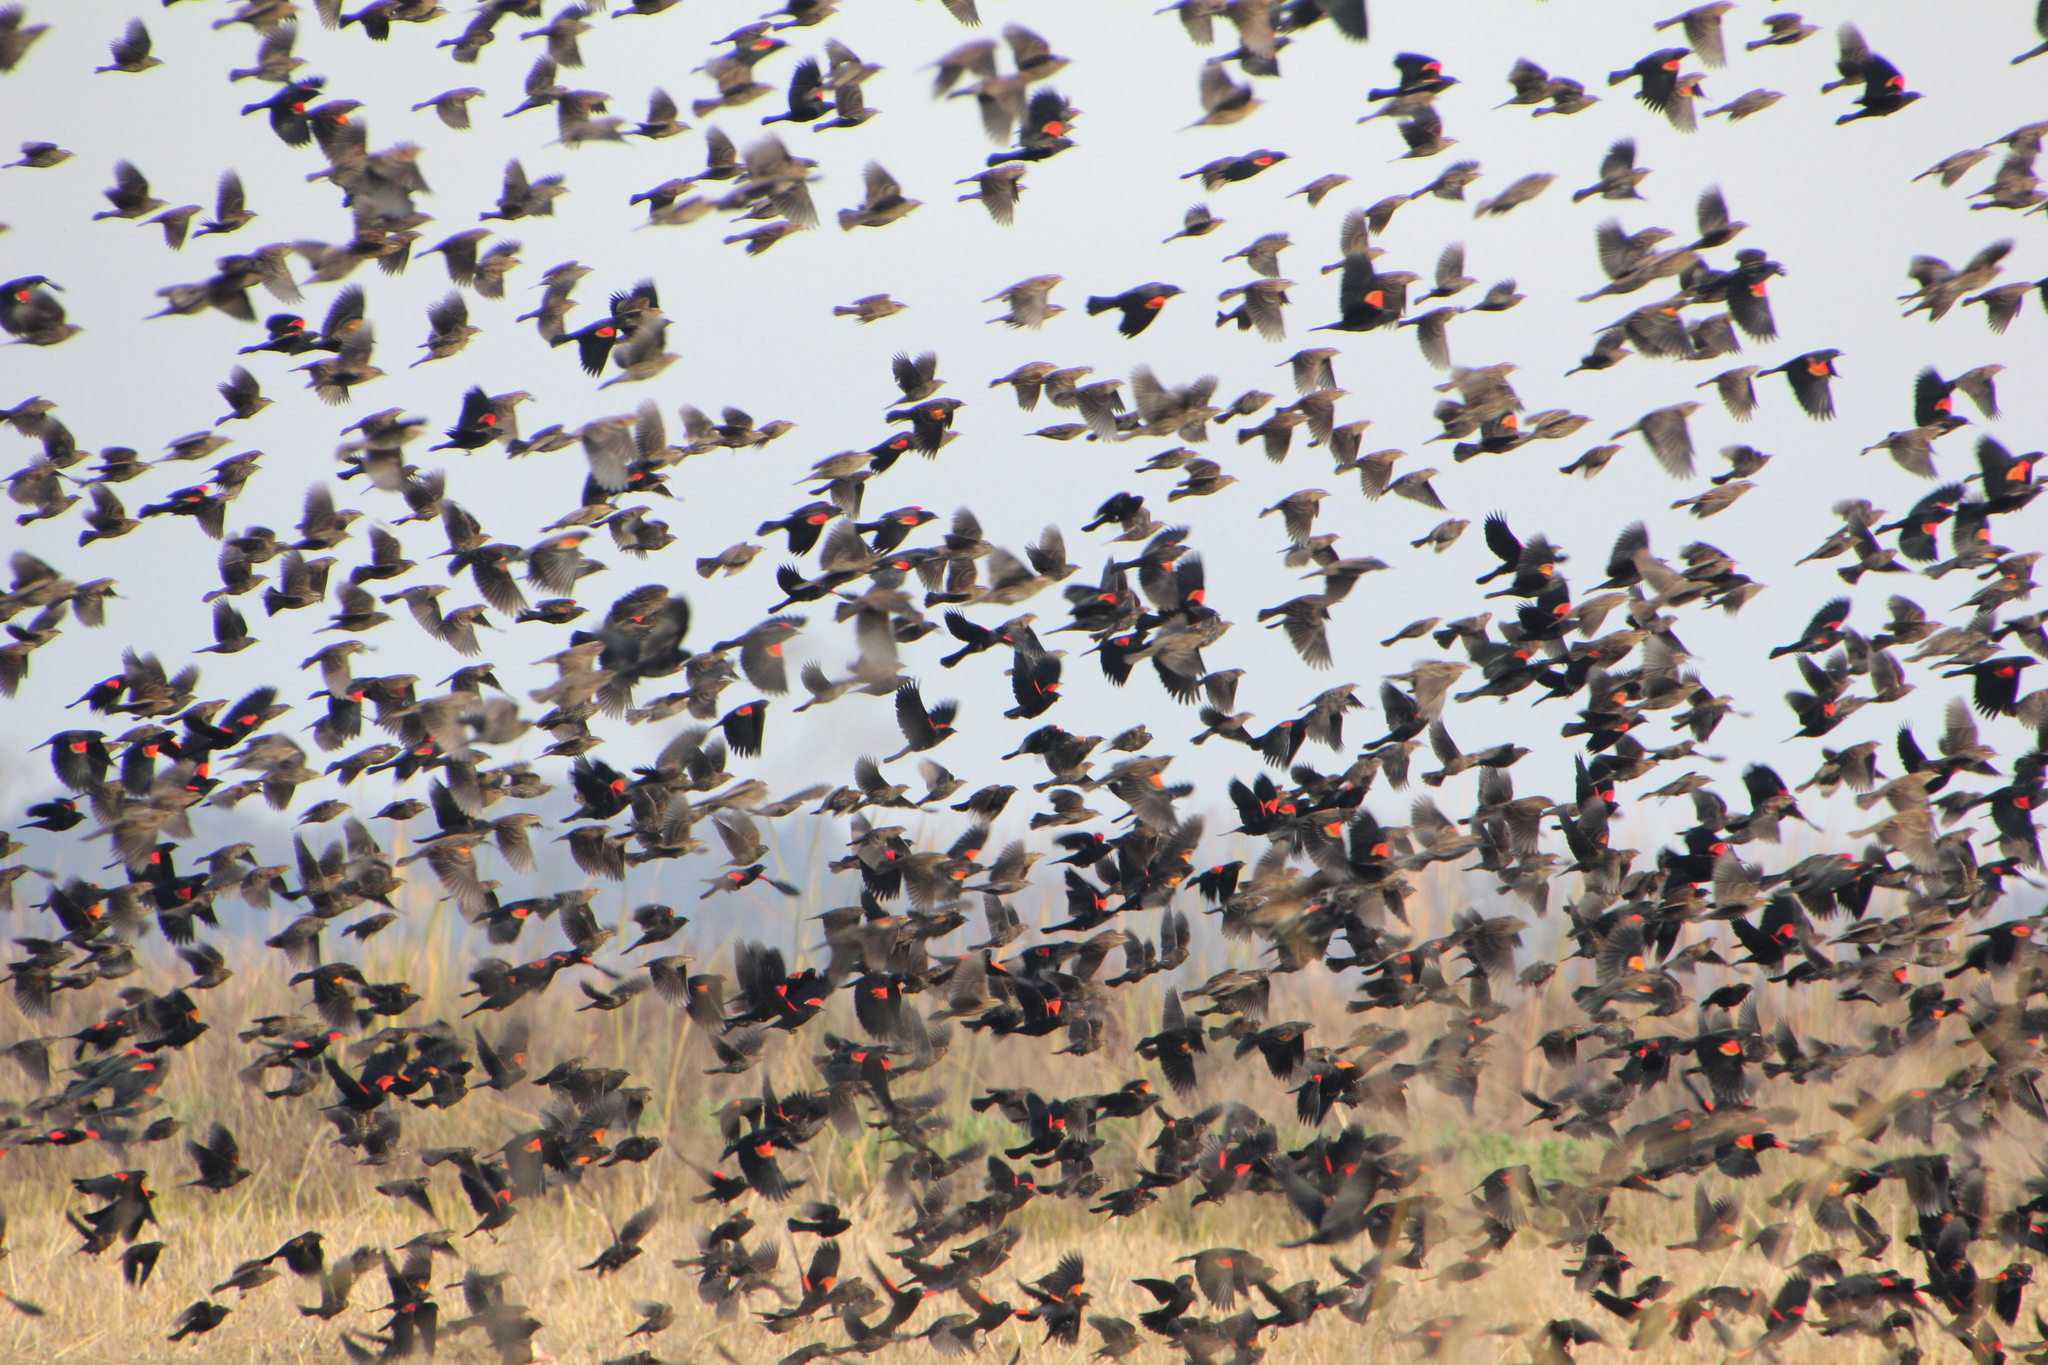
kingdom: Animalia
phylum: Chordata
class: Aves
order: Passeriformes
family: Icteridae
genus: Agelaius
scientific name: Agelaius phoeniceus
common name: Red-winged blackbird
